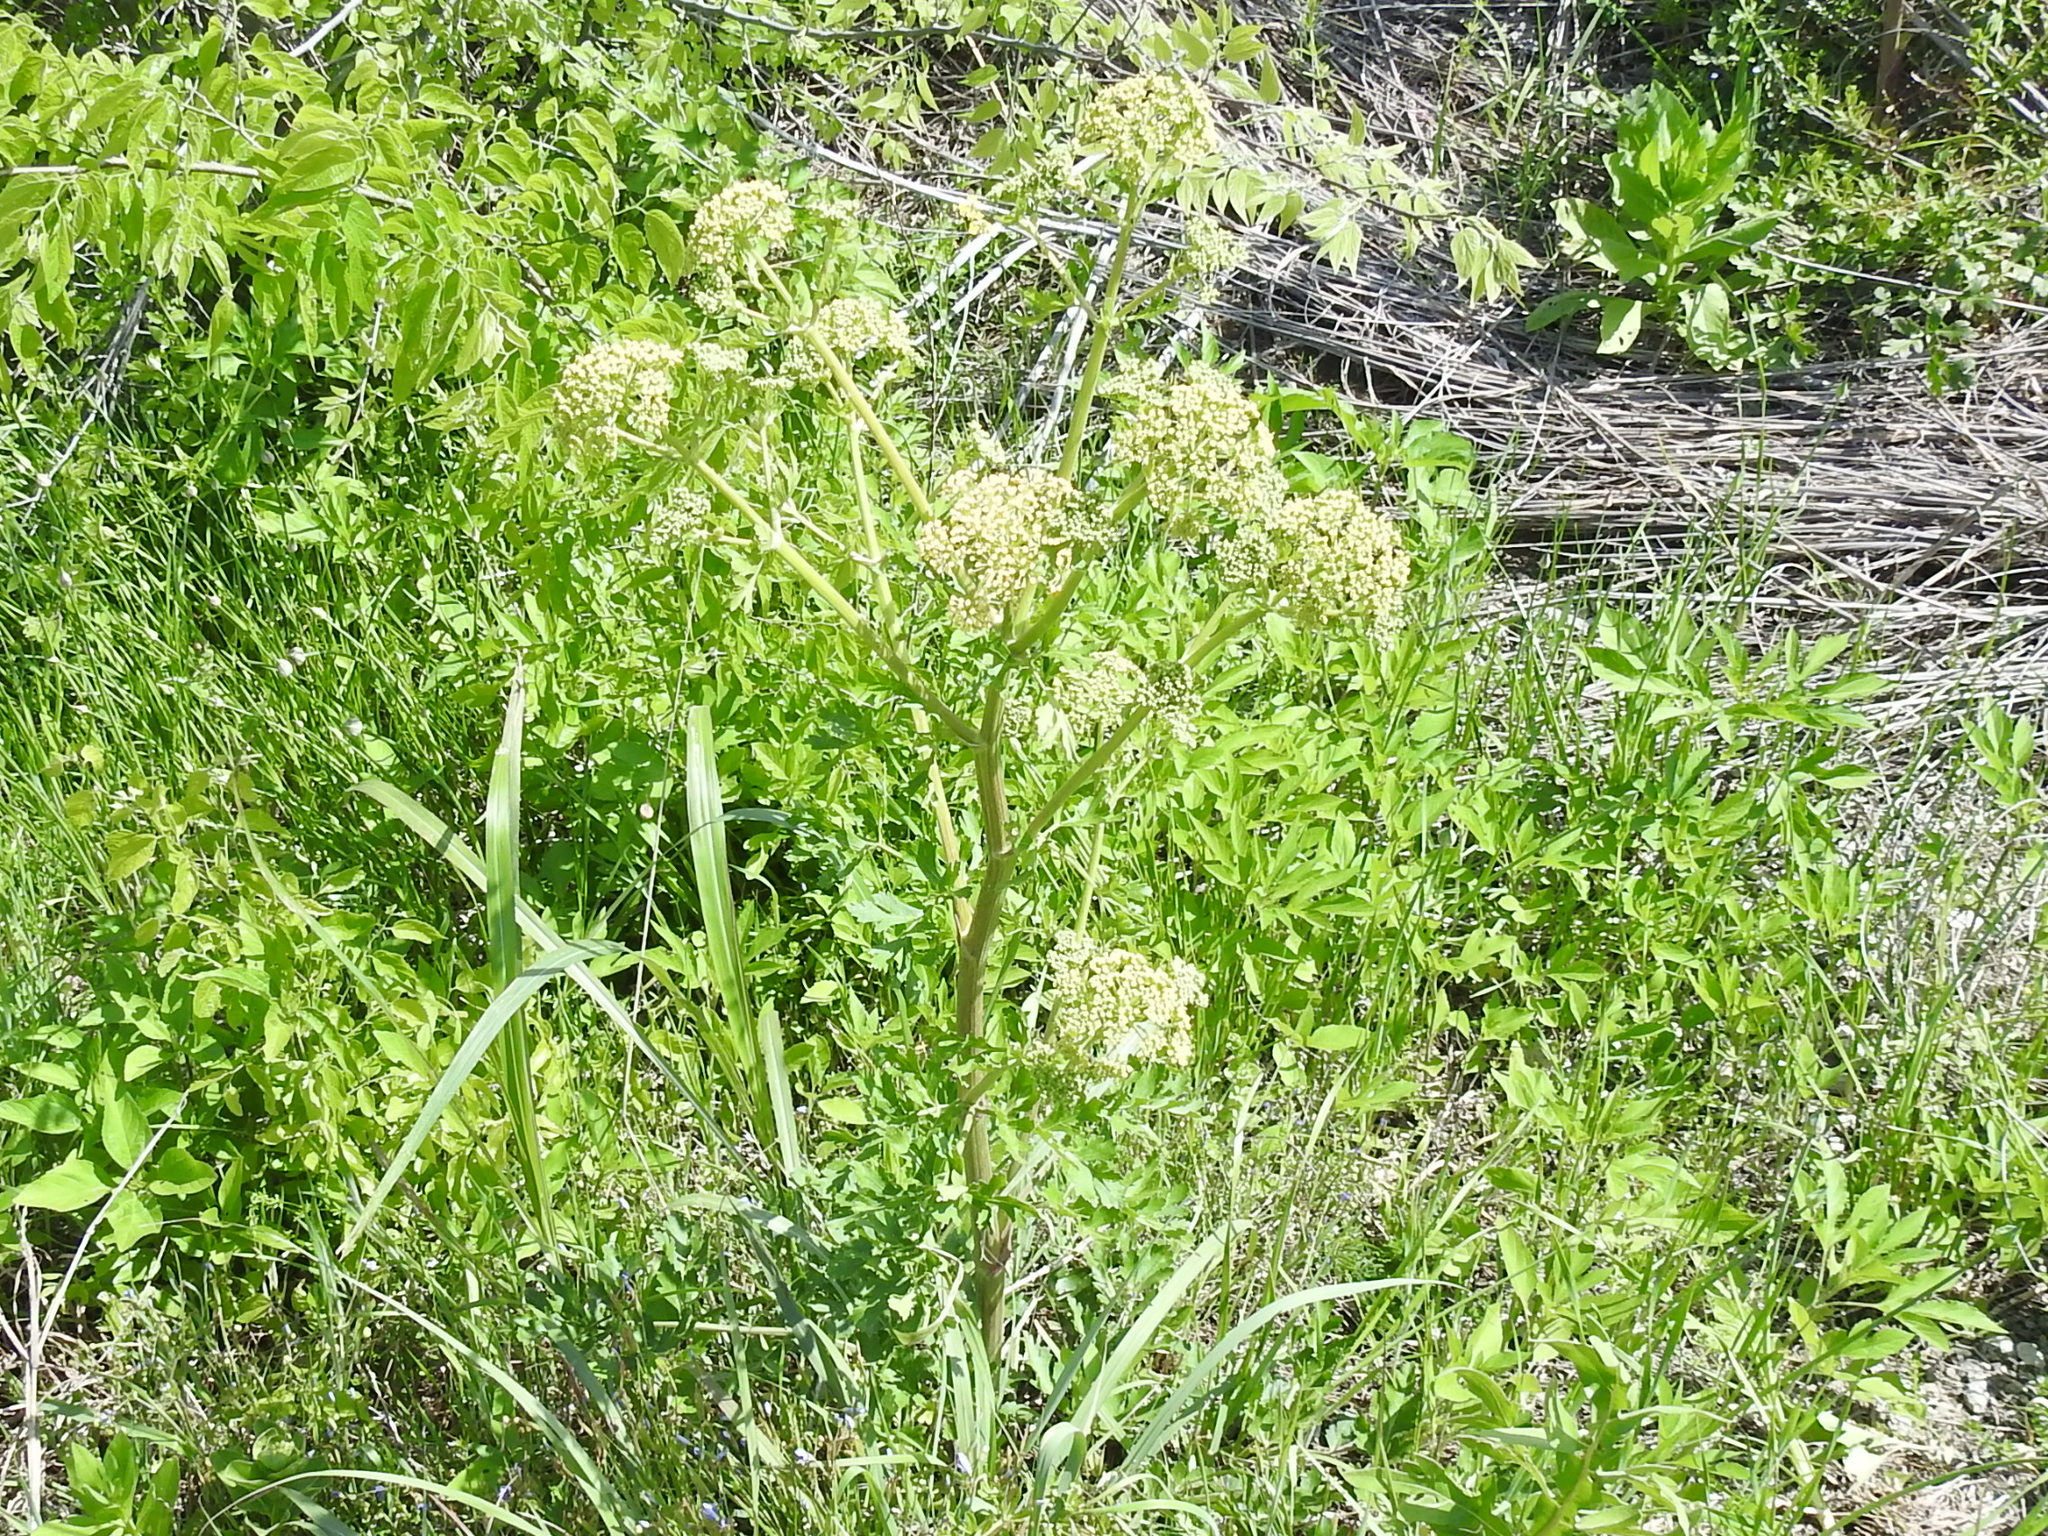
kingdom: Plantae
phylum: Tracheophyta
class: Magnoliopsida
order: Apiales
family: Apiaceae
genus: Polytaenia
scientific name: Polytaenia texana
